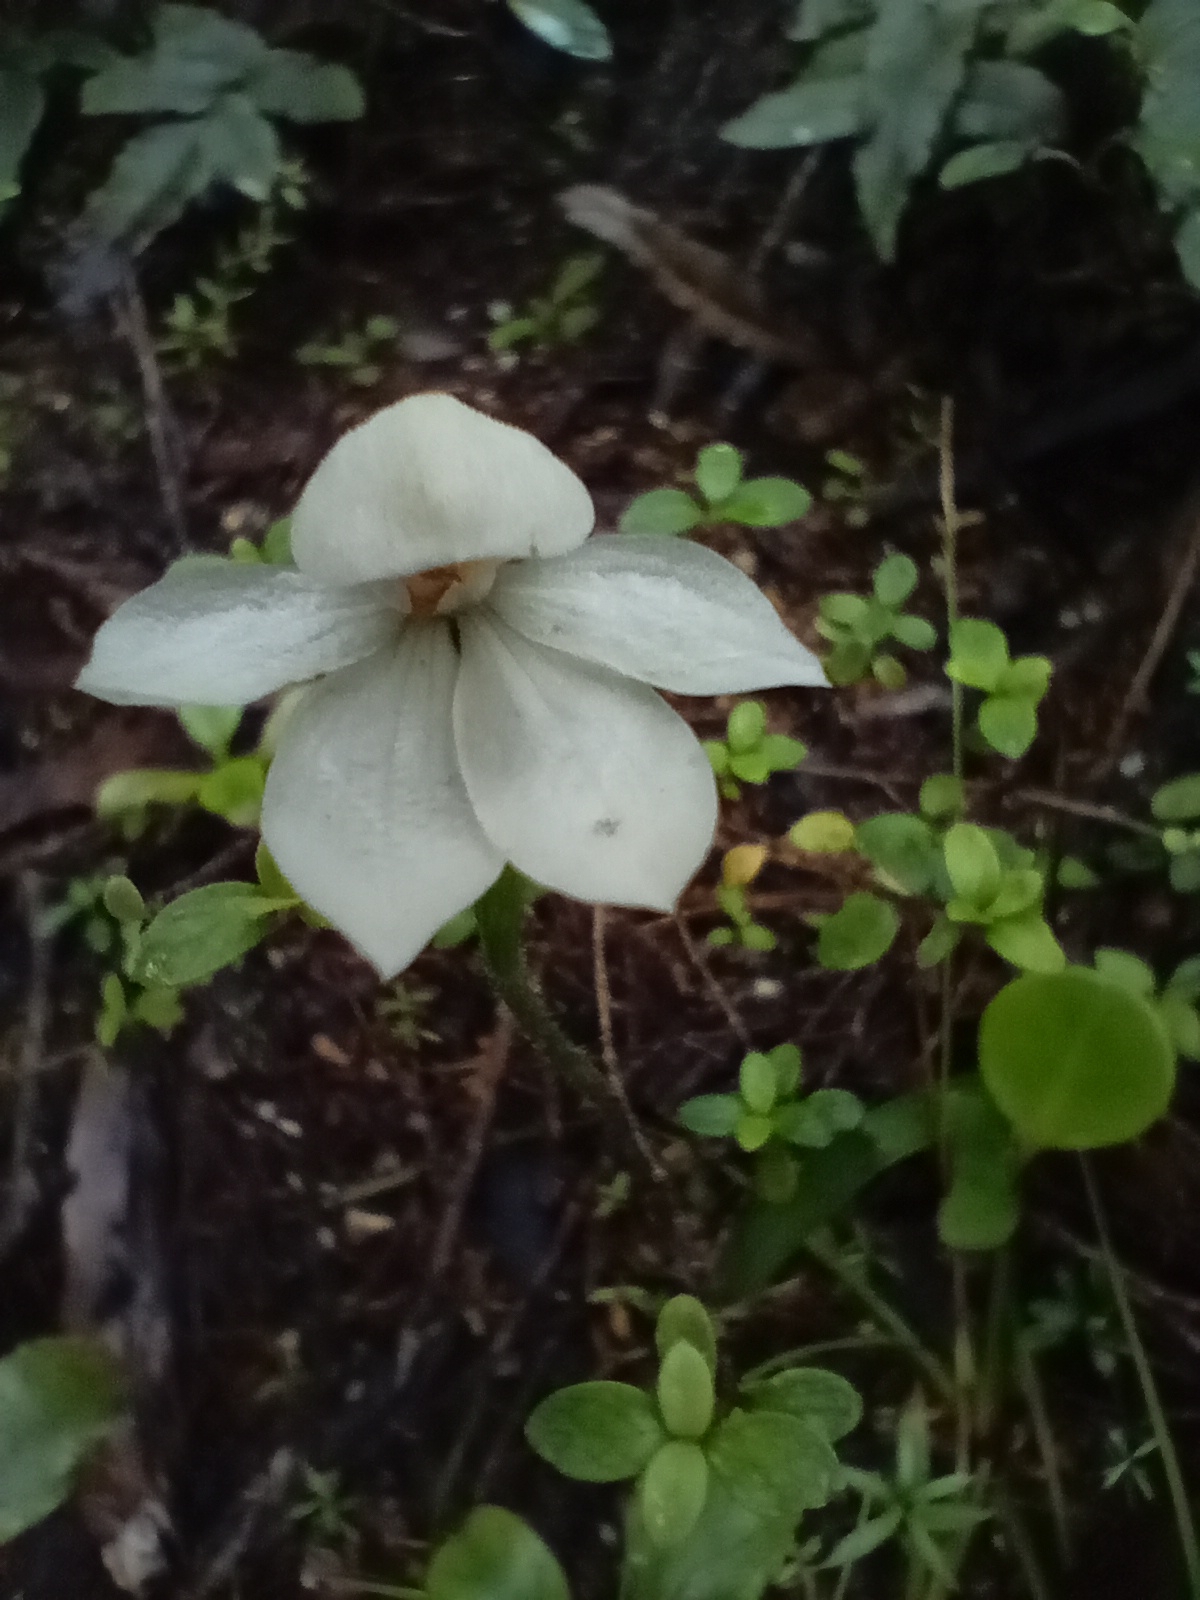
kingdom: Plantae
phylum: Tracheophyta
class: Liliopsida
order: Asparagales
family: Orchidaceae
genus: Caladenia
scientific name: Caladenia lyallii
